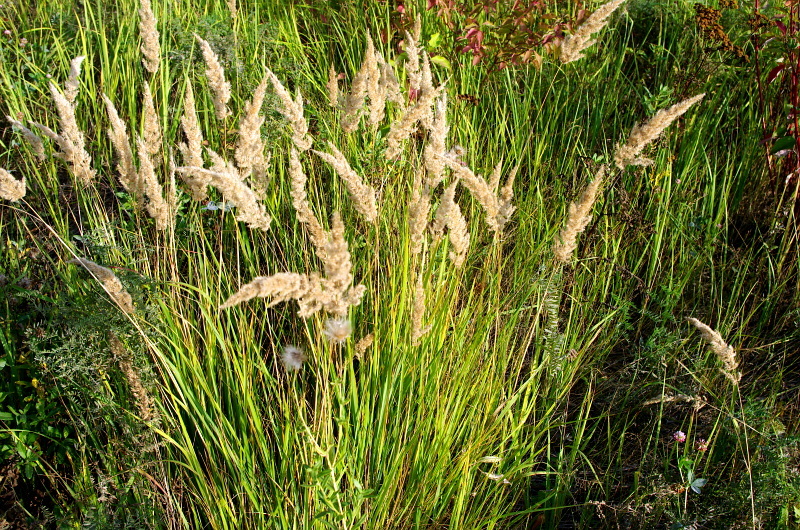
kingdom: Plantae
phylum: Tracheophyta
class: Liliopsida
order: Poales
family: Poaceae
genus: Calamagrostis
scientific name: Calamagrostis epigejos
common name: Wood small-reed
